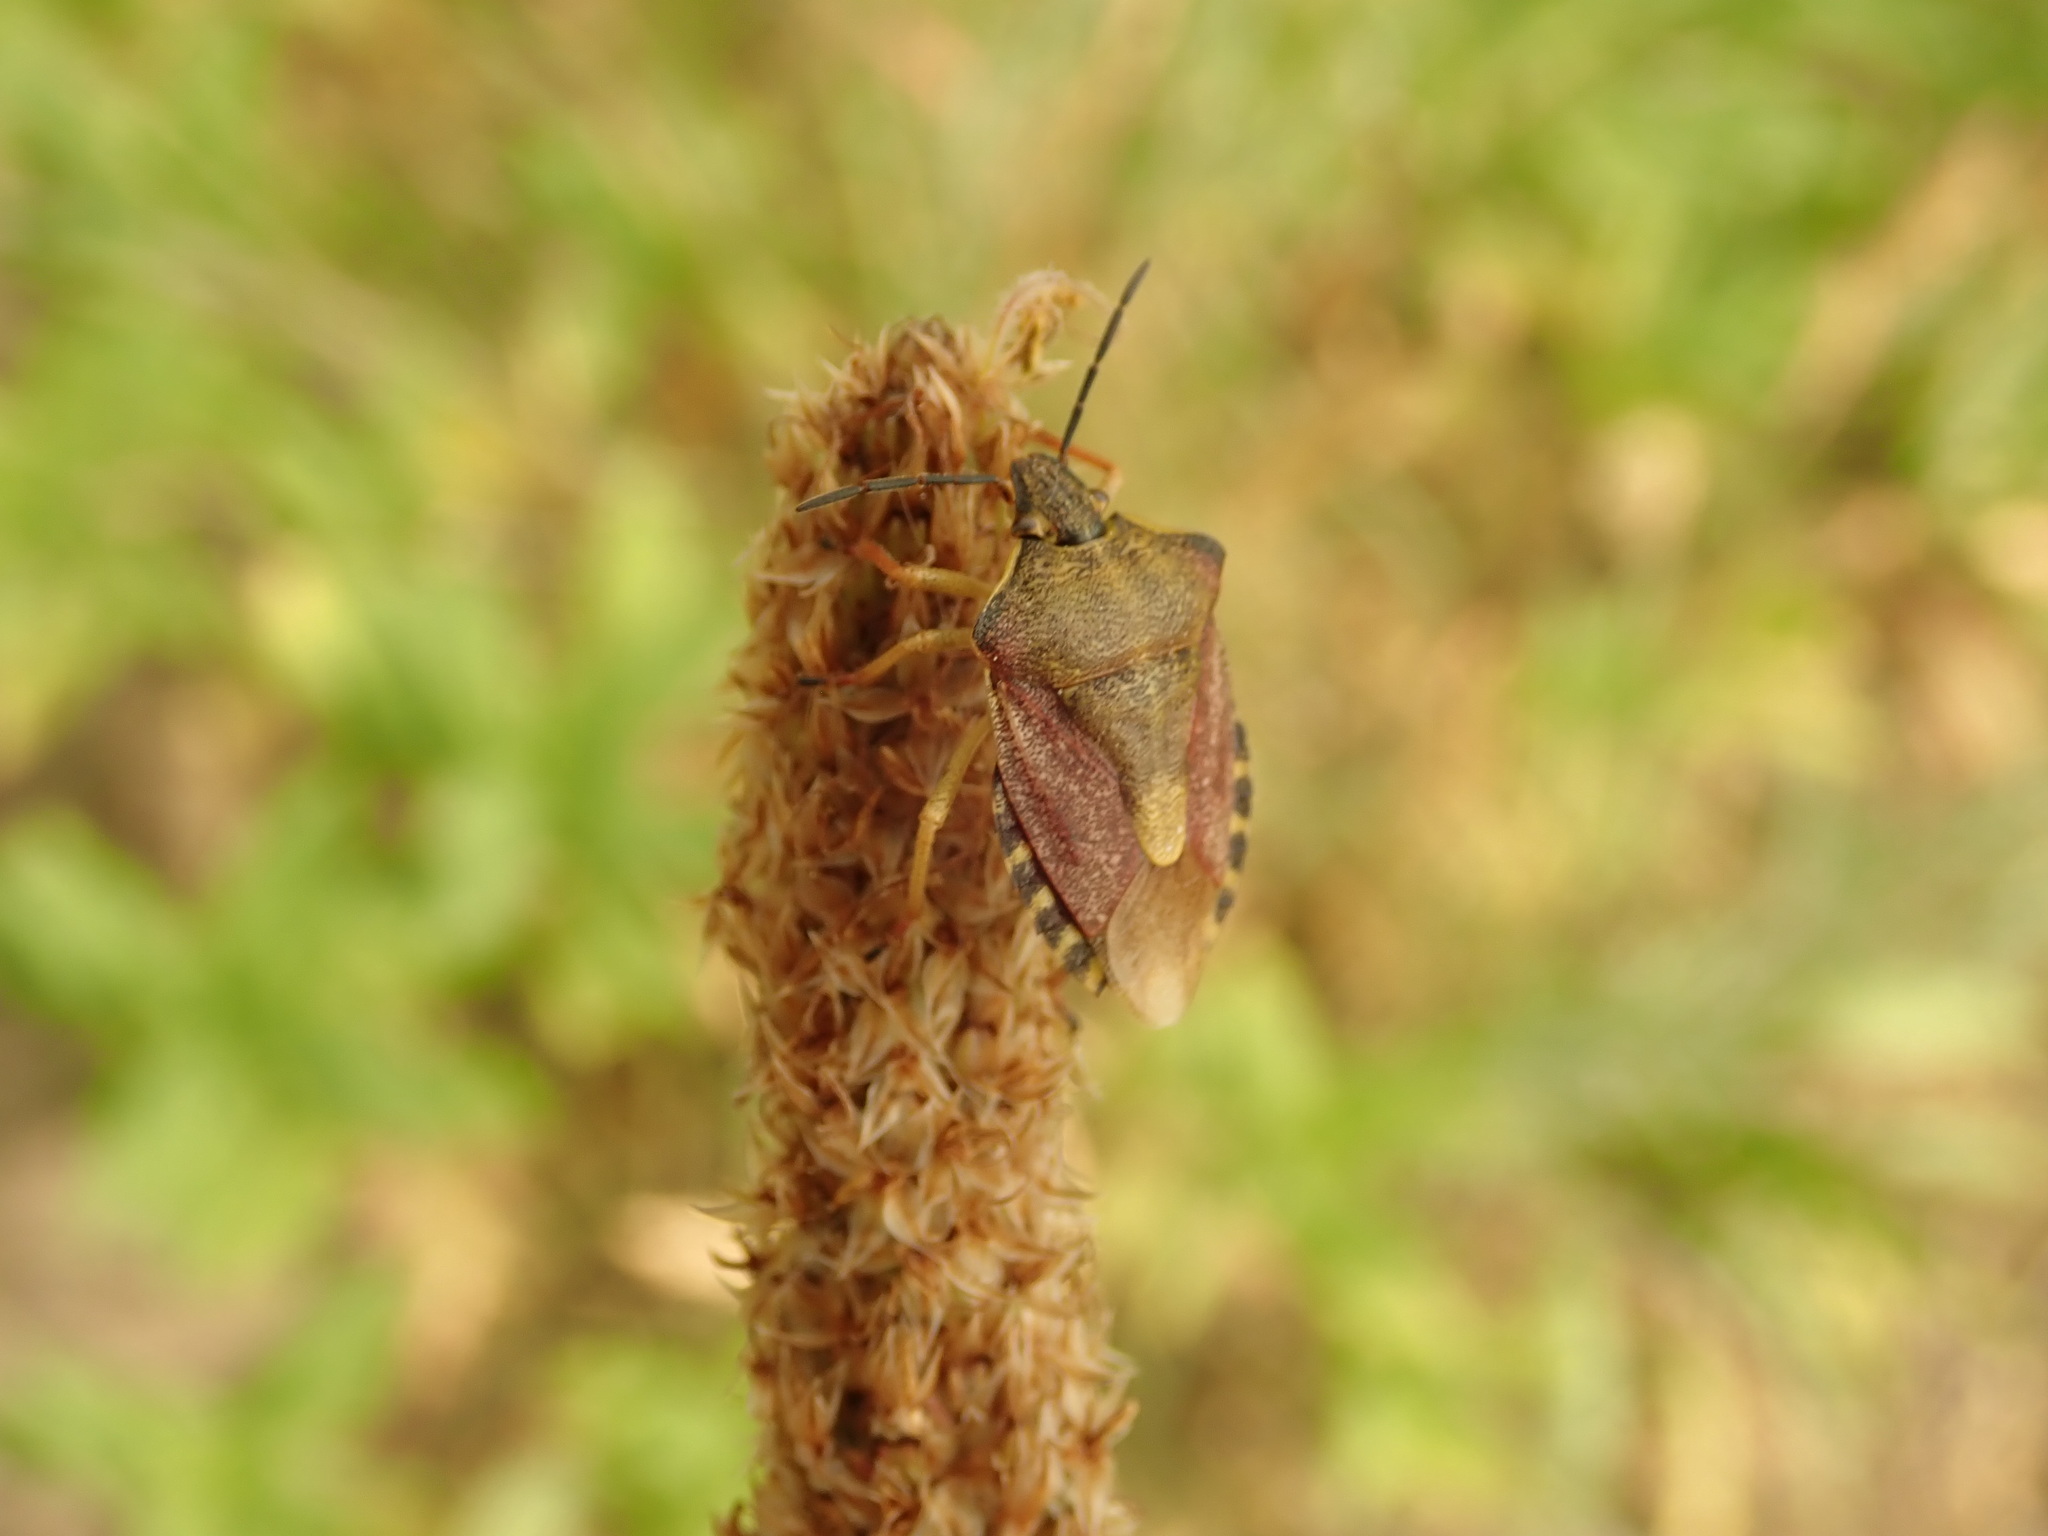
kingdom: Animalia
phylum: Arthropoda
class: Insecta
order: Hemiptera
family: Pentatomidae
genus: Carpocoris
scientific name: Carpocoris purpureipennis
